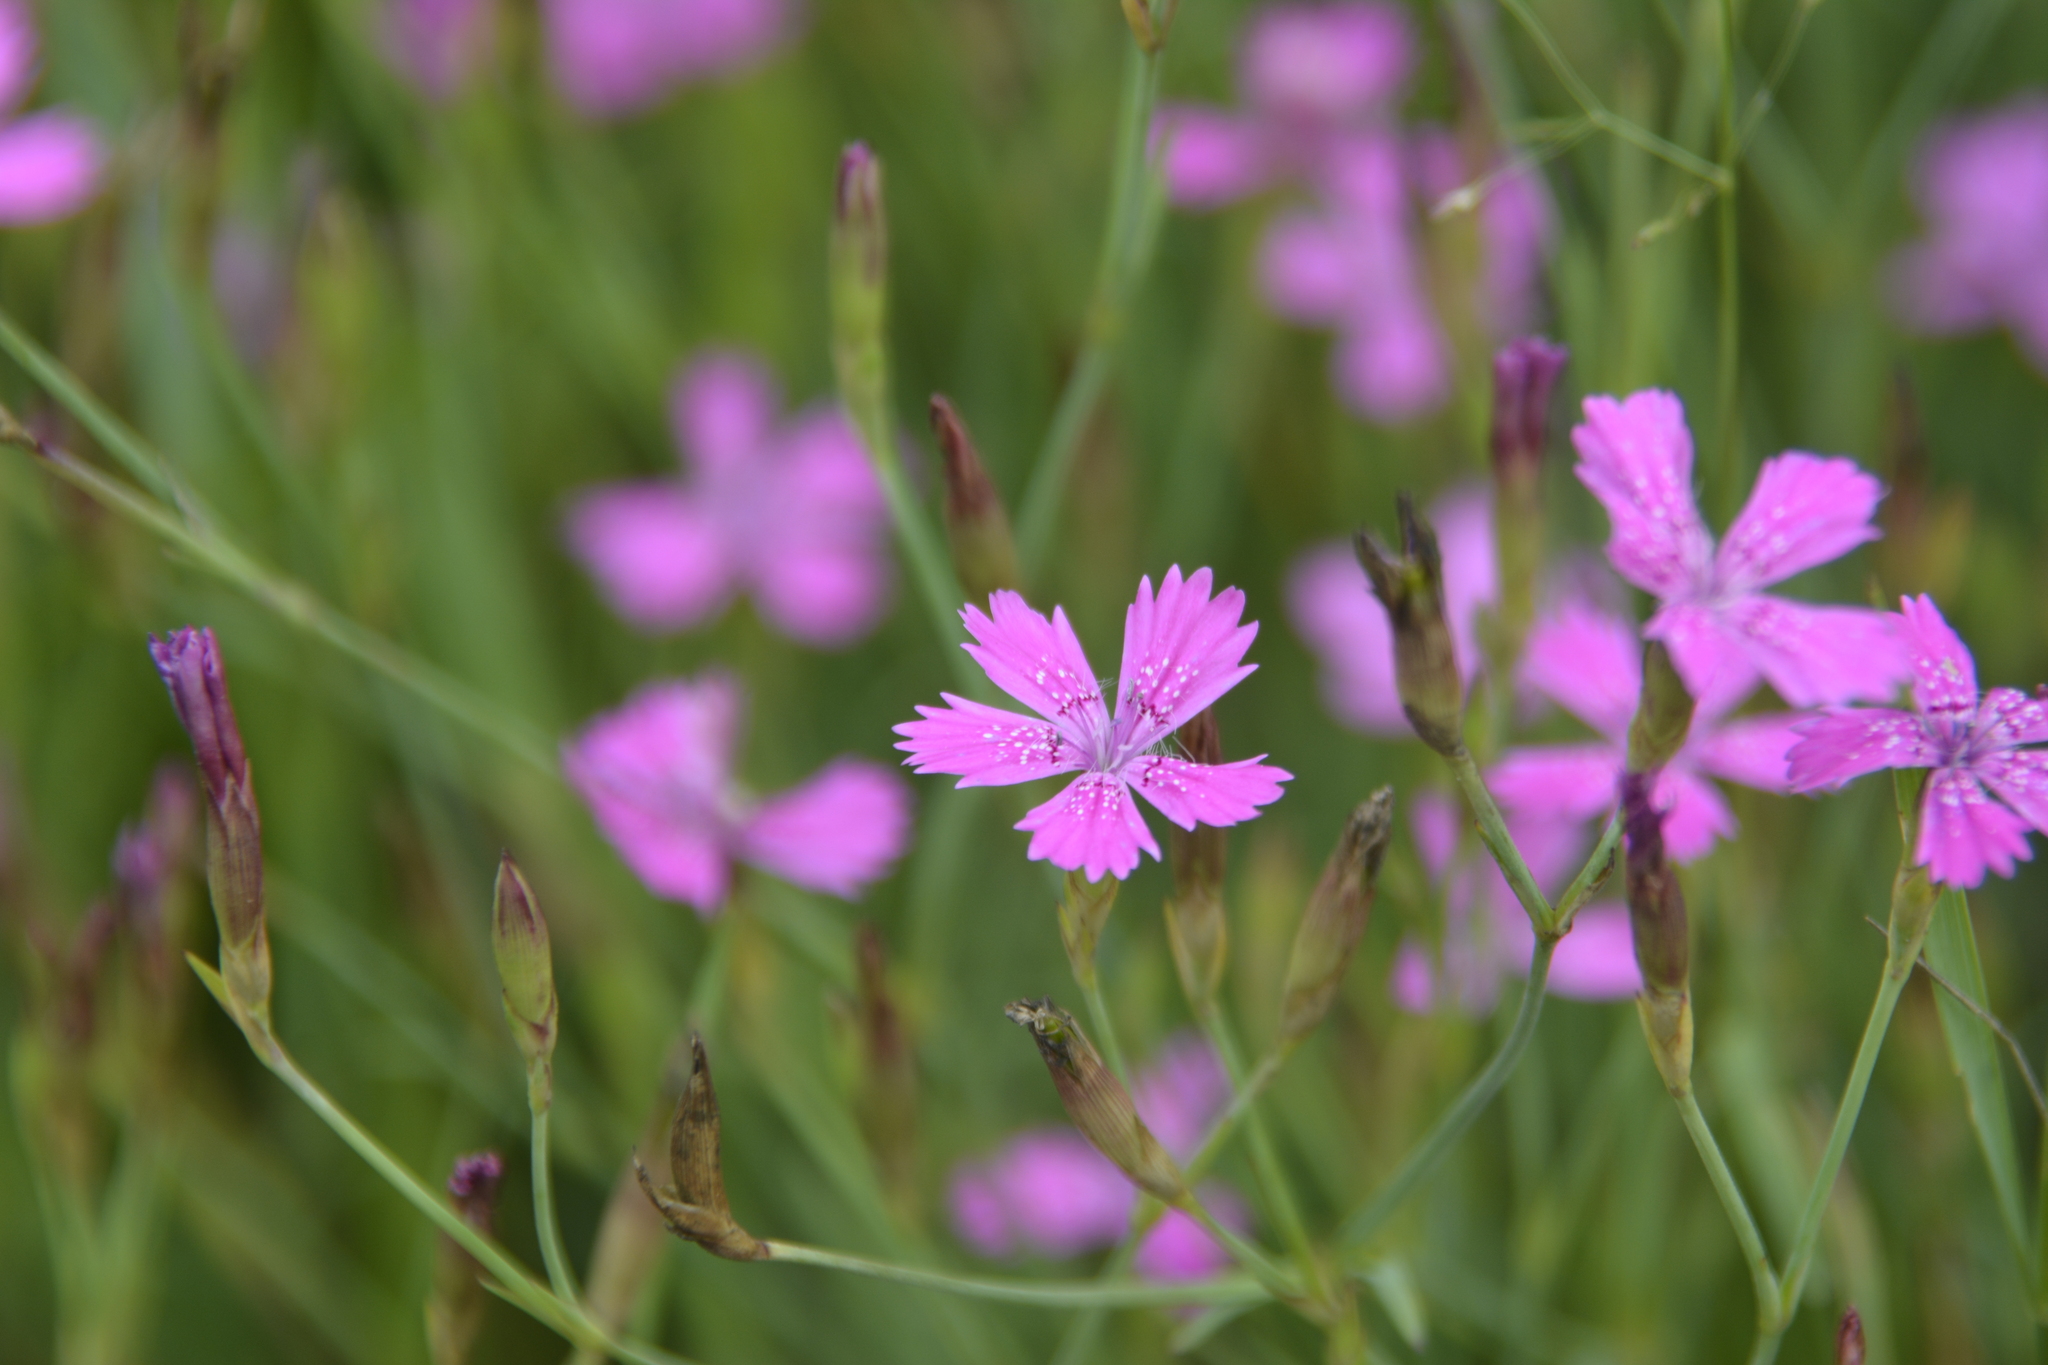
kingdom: Plantae
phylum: Tracheophyta
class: Magnoliopsida
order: Caryophyllales
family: Caryophyllaceae
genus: Dianthus
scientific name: Dianthus deltoides
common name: Maiden pink
